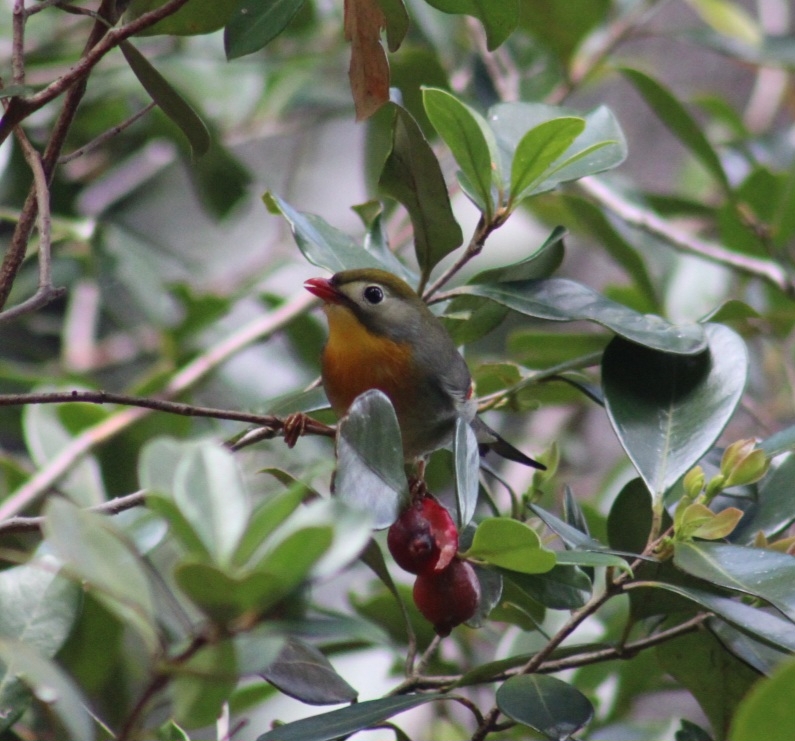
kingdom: Animalia
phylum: Chordata
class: Aves
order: Passeriformes
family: Leiothrichidae
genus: Leiothrix
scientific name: Leiothrix lutea
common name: Red-billed leiothrix
